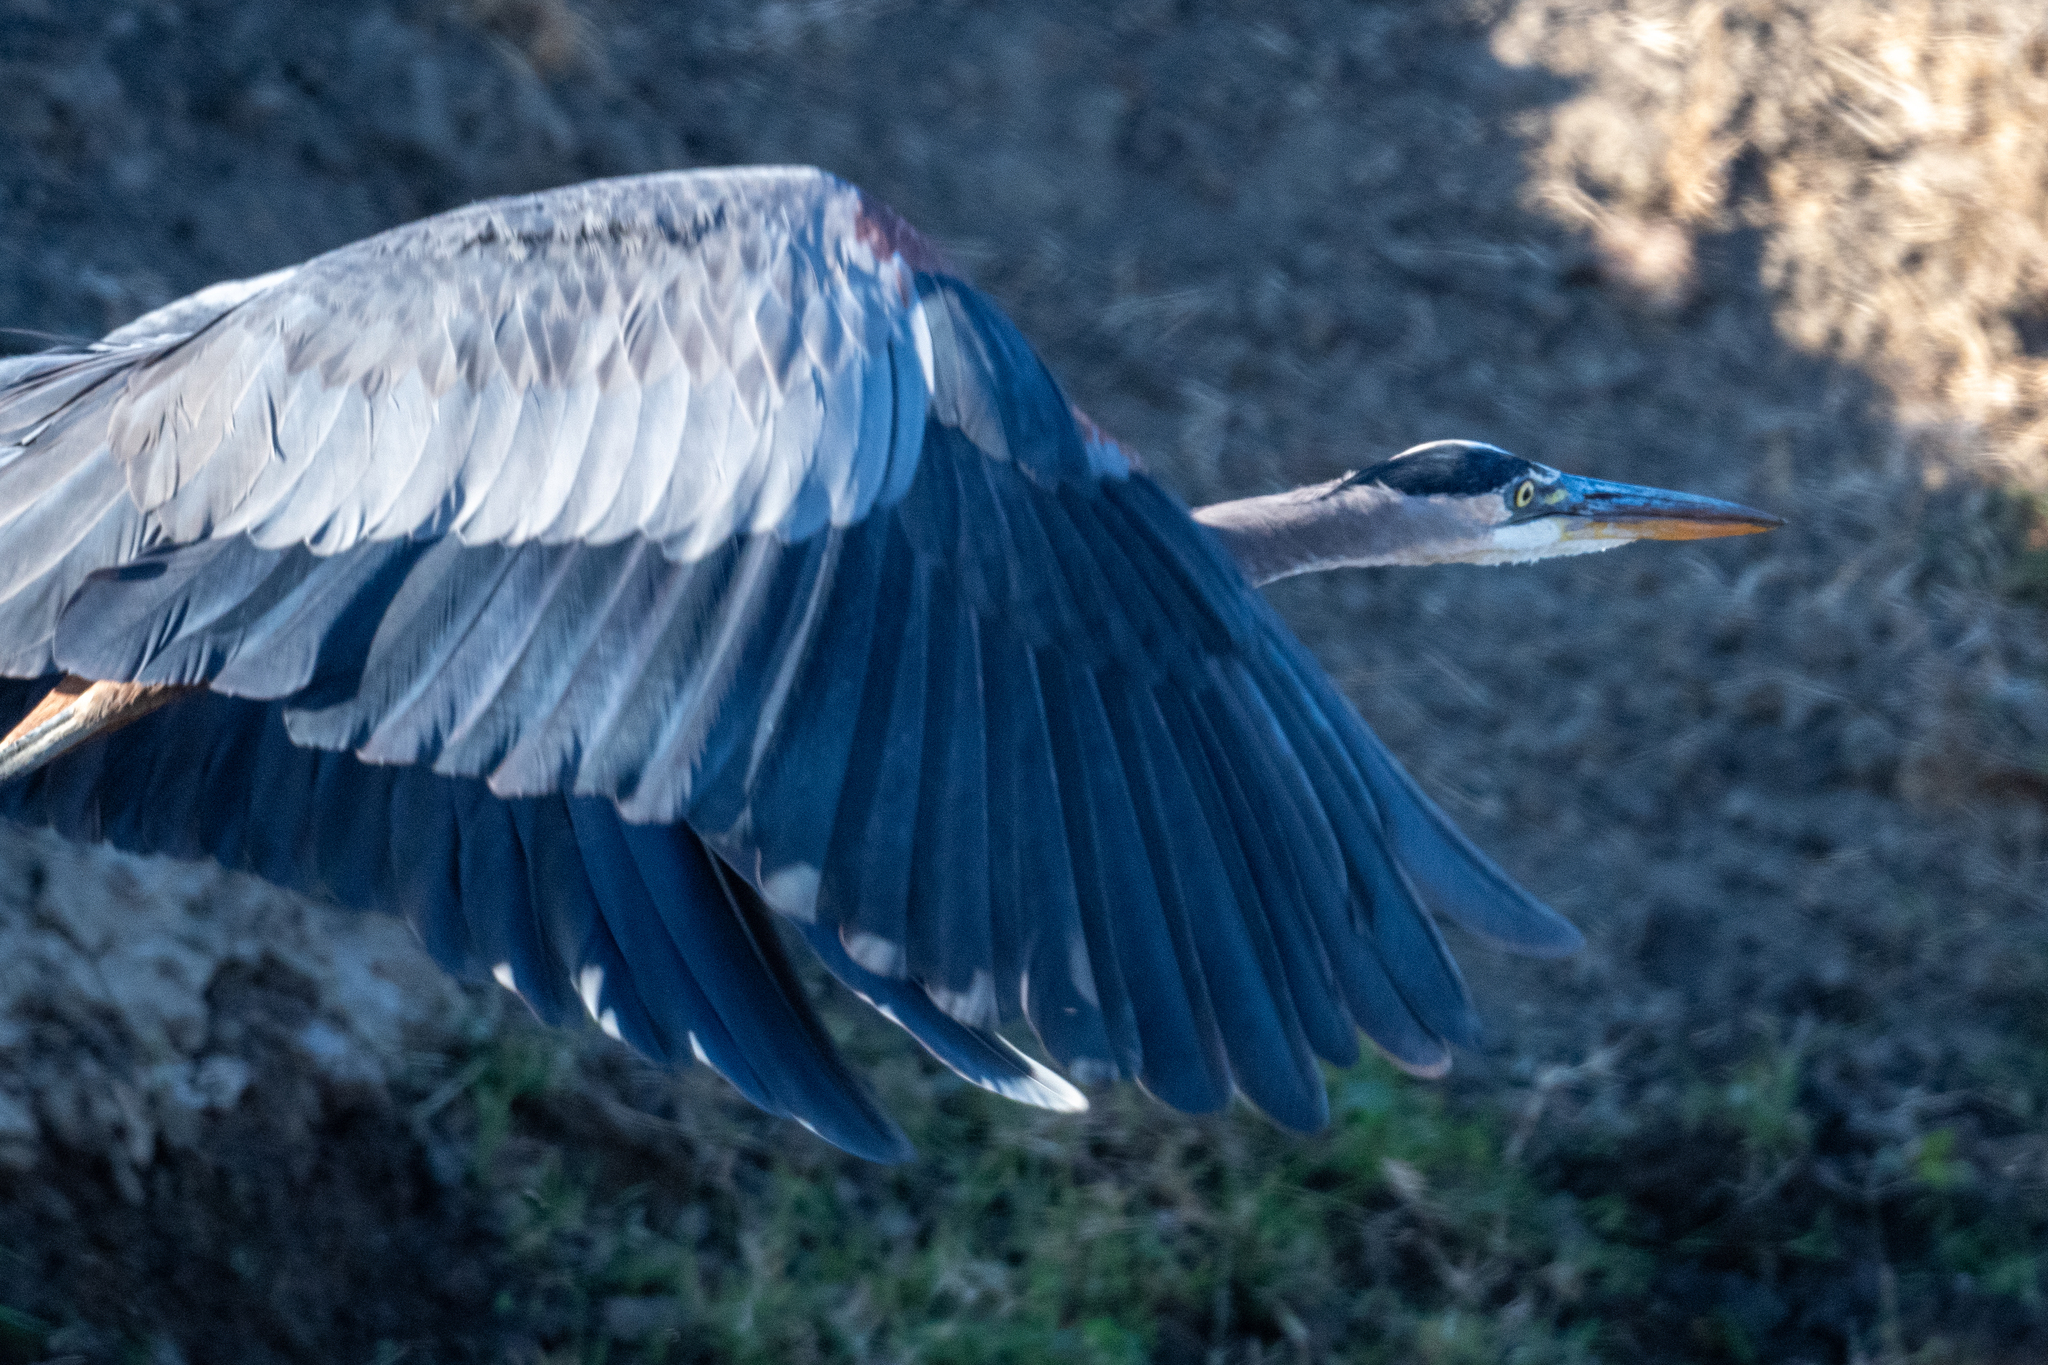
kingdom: Animalia
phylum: Chordata
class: Aves
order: Pelecaniformes
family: Ardeidae
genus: Ardea
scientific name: Ardea herodias
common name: Great blue heron
